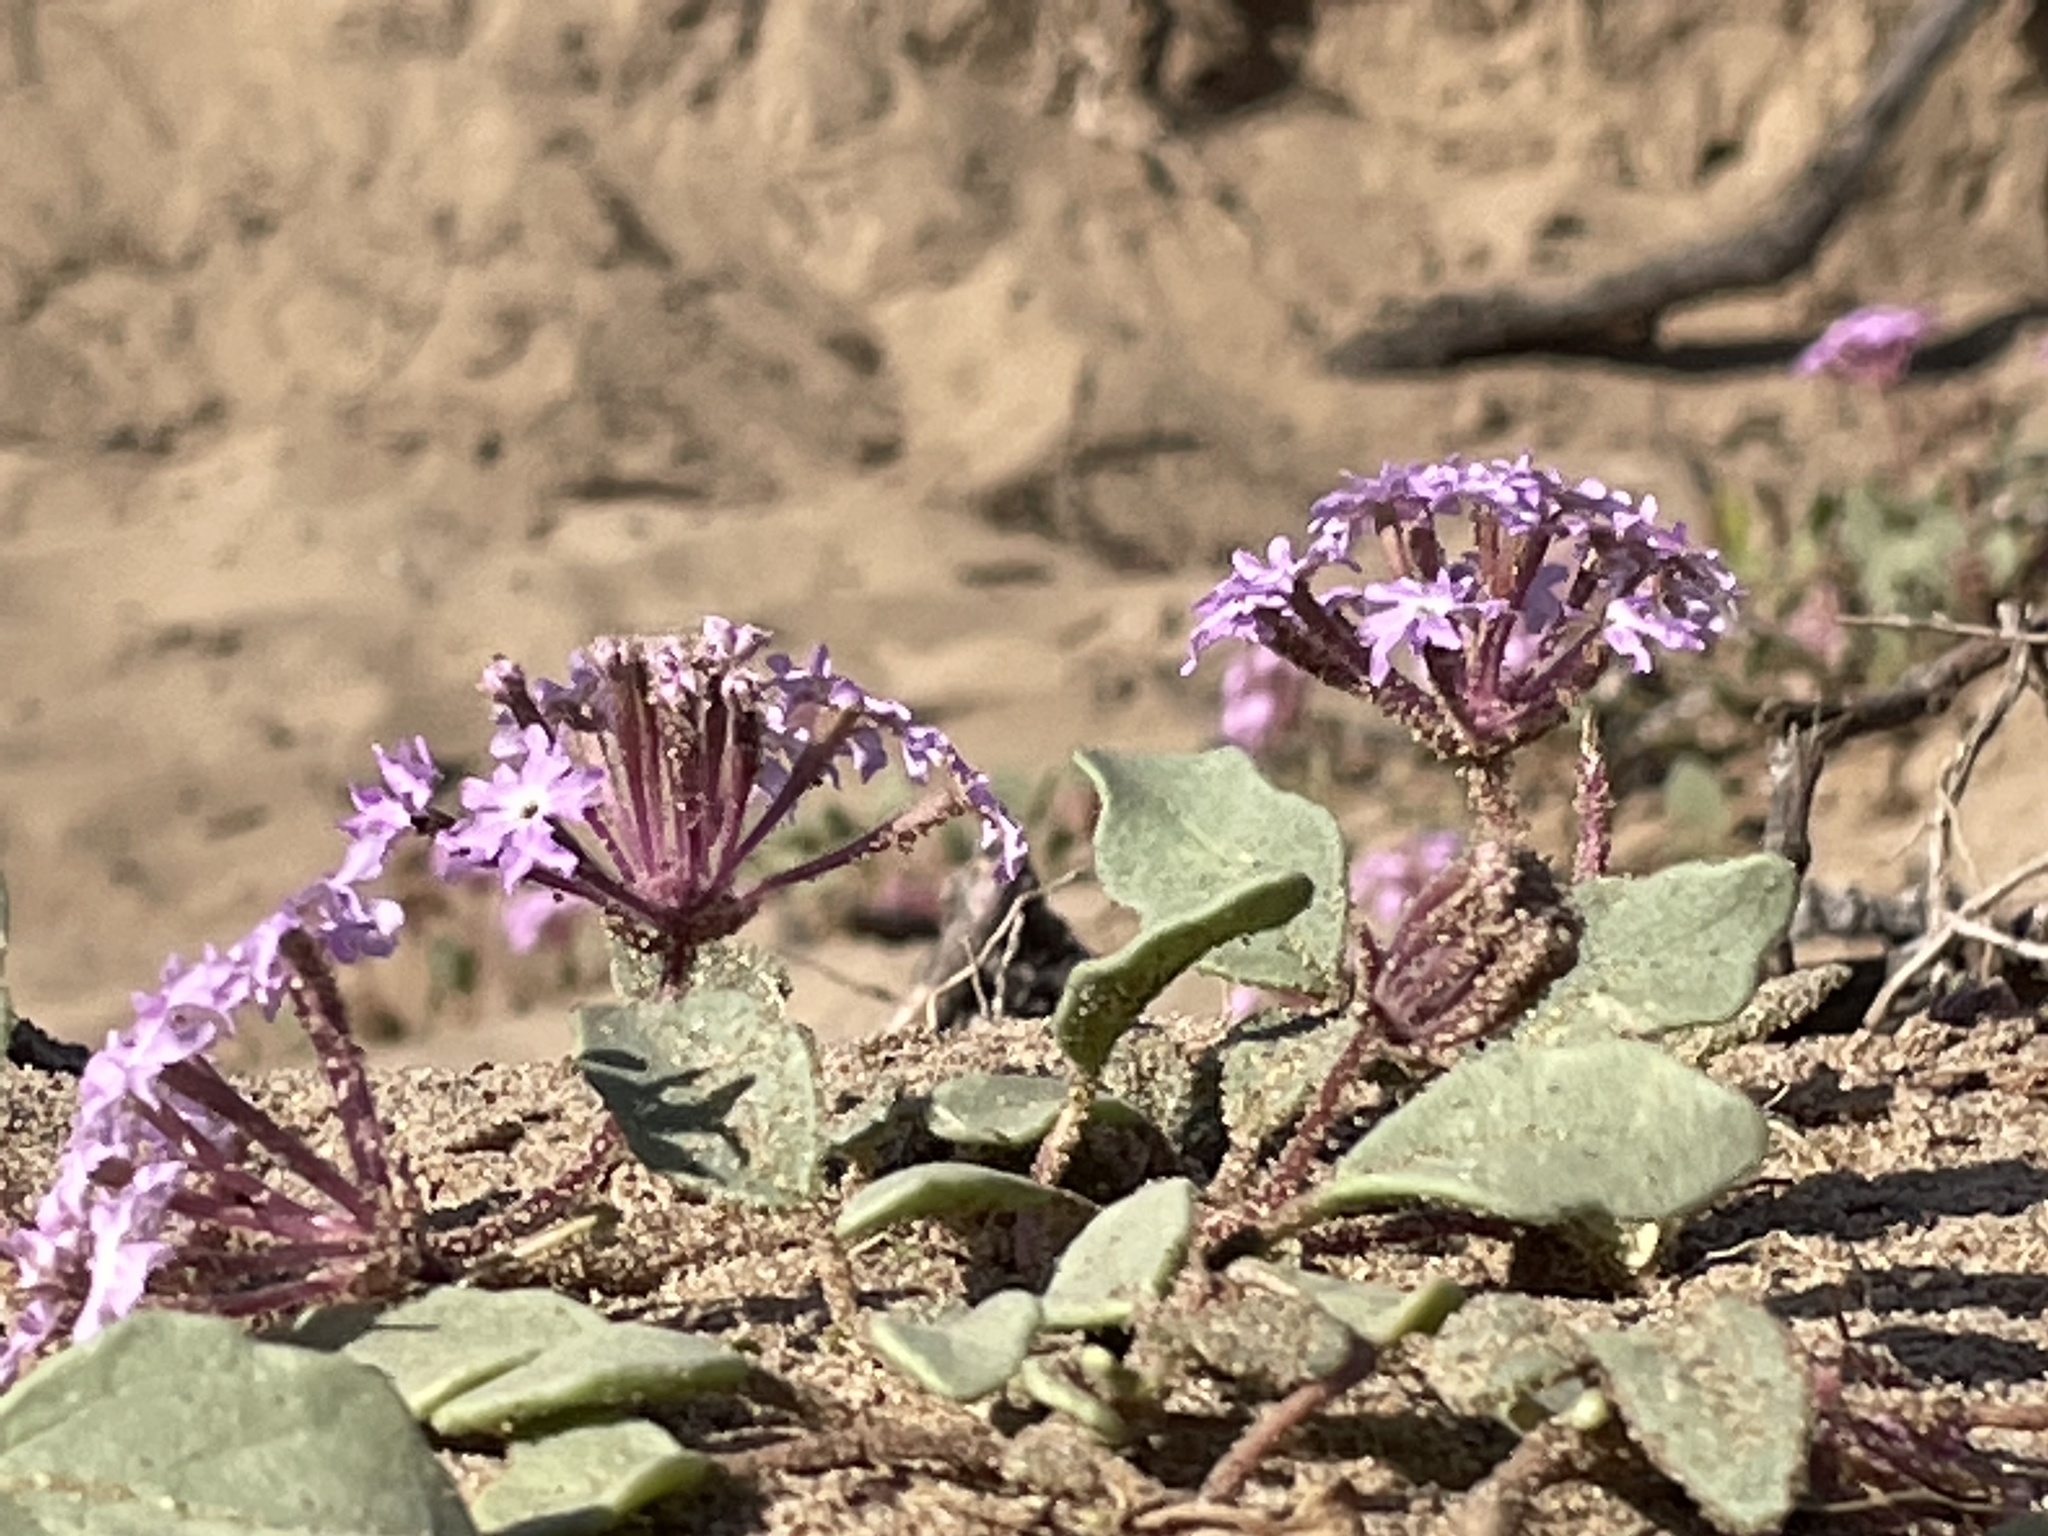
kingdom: Plantae
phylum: Tracheophyta
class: Magnoliopsida
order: Caryophyllales
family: Nyctaginaceae
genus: Abronia
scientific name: Abronia umbellata
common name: Sand-verbena
